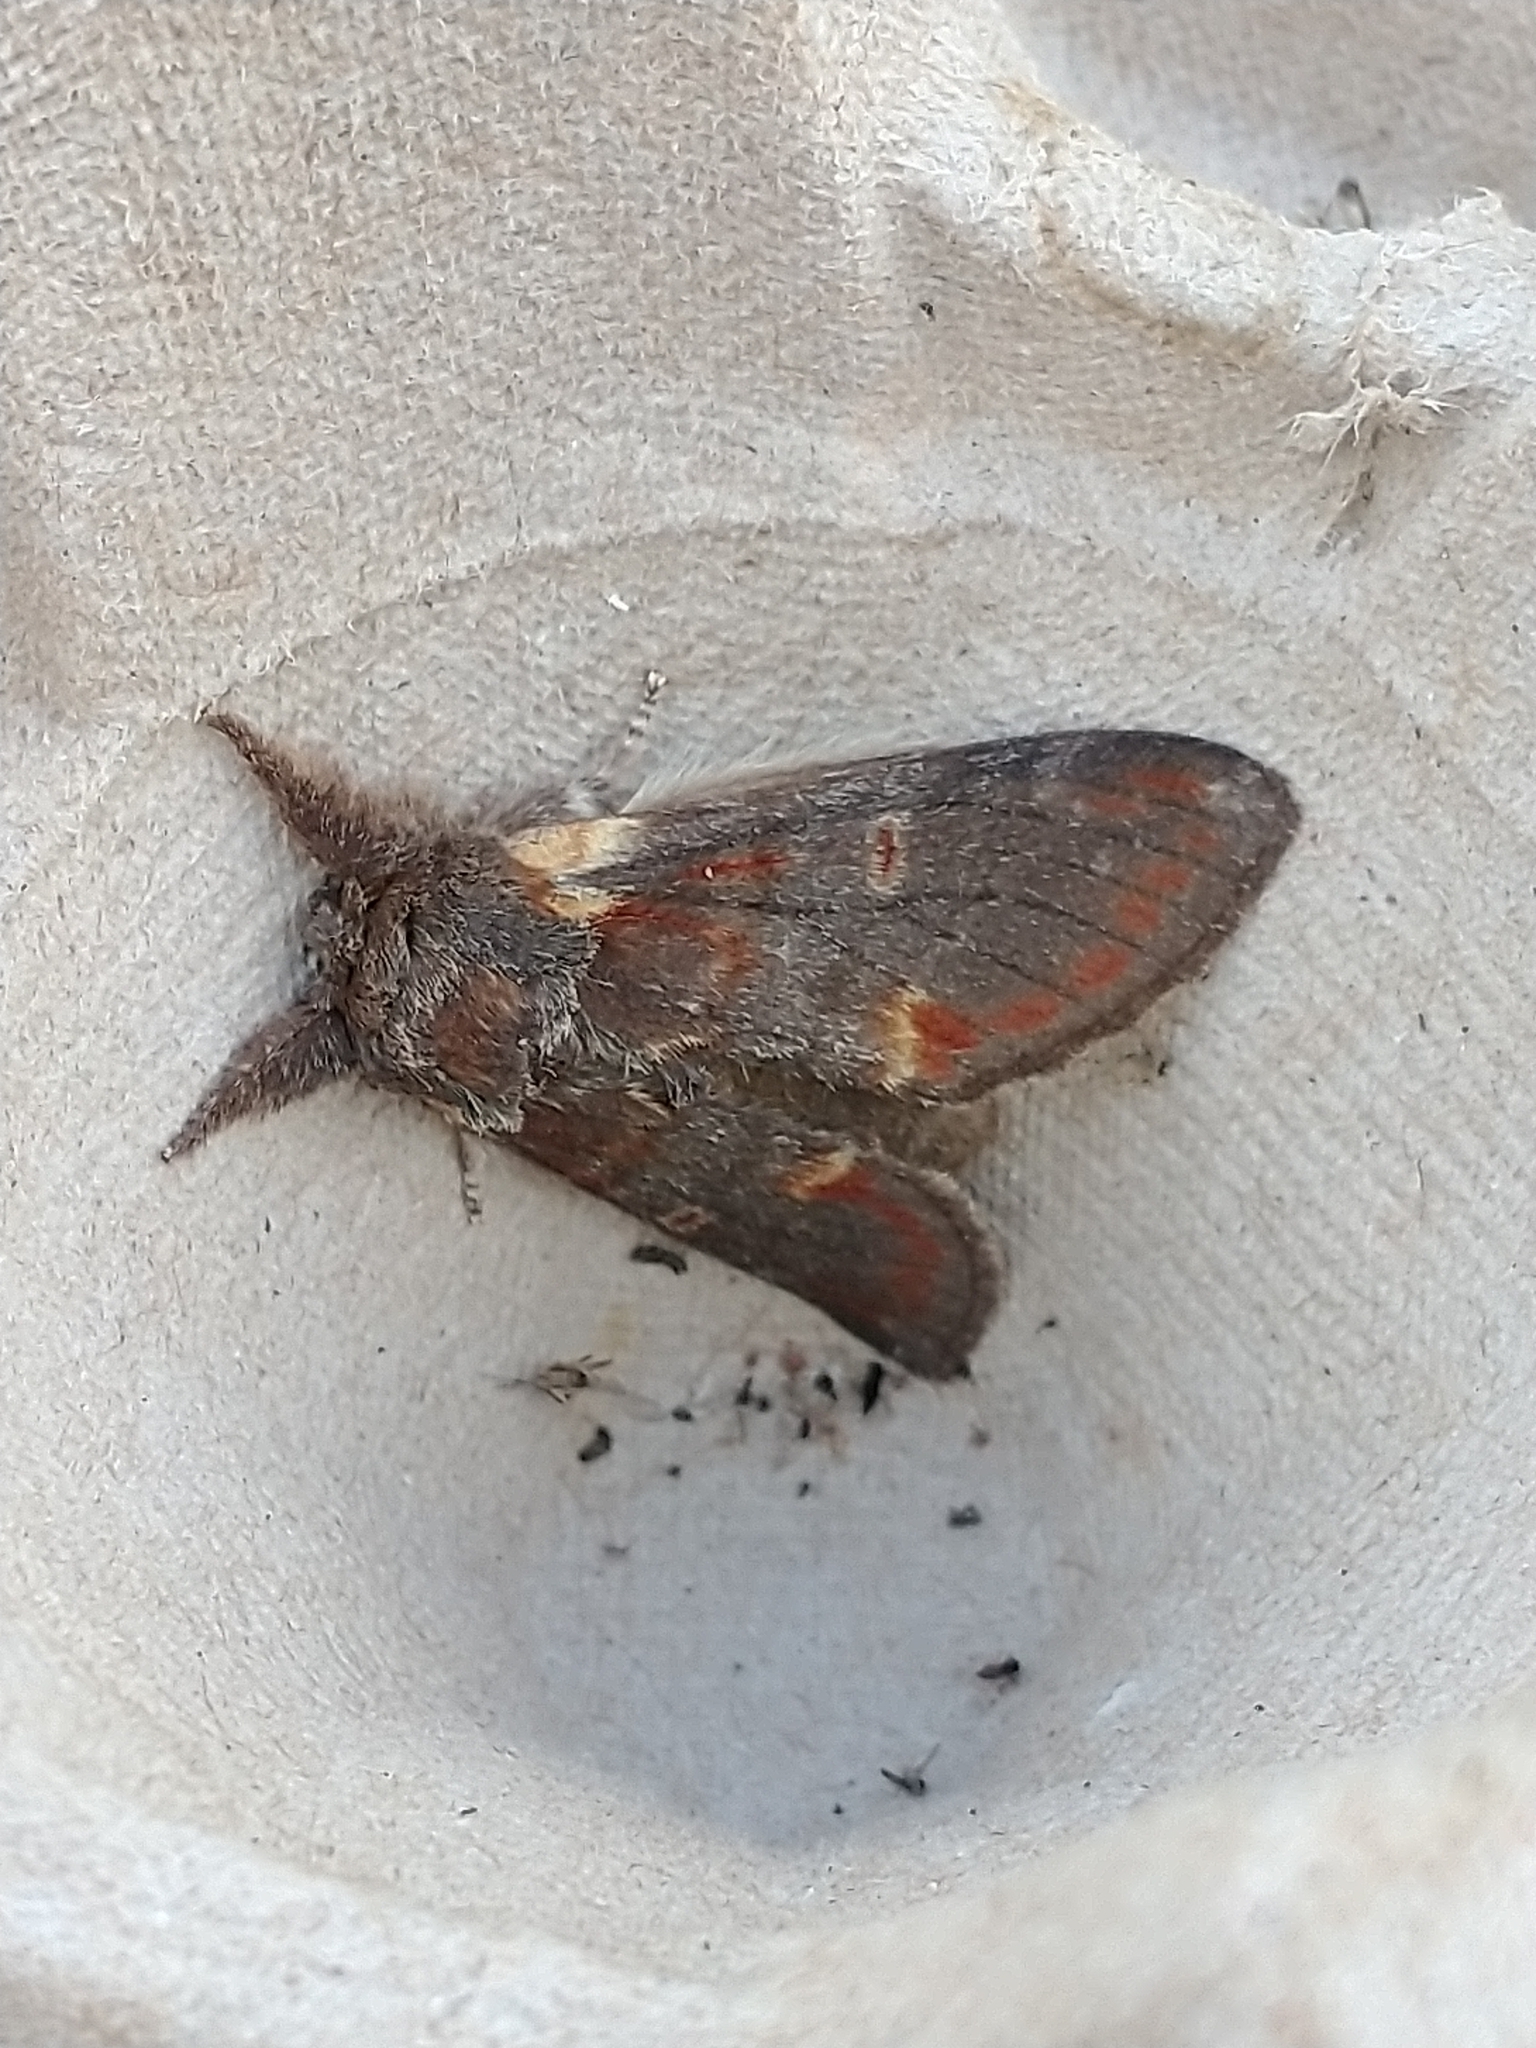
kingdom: Animalia
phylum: Arthropoda
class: Insecta
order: Lepidoptera
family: Notodontidae
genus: Notodonta
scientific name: Notodonta dromedarius
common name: Iron prominent
